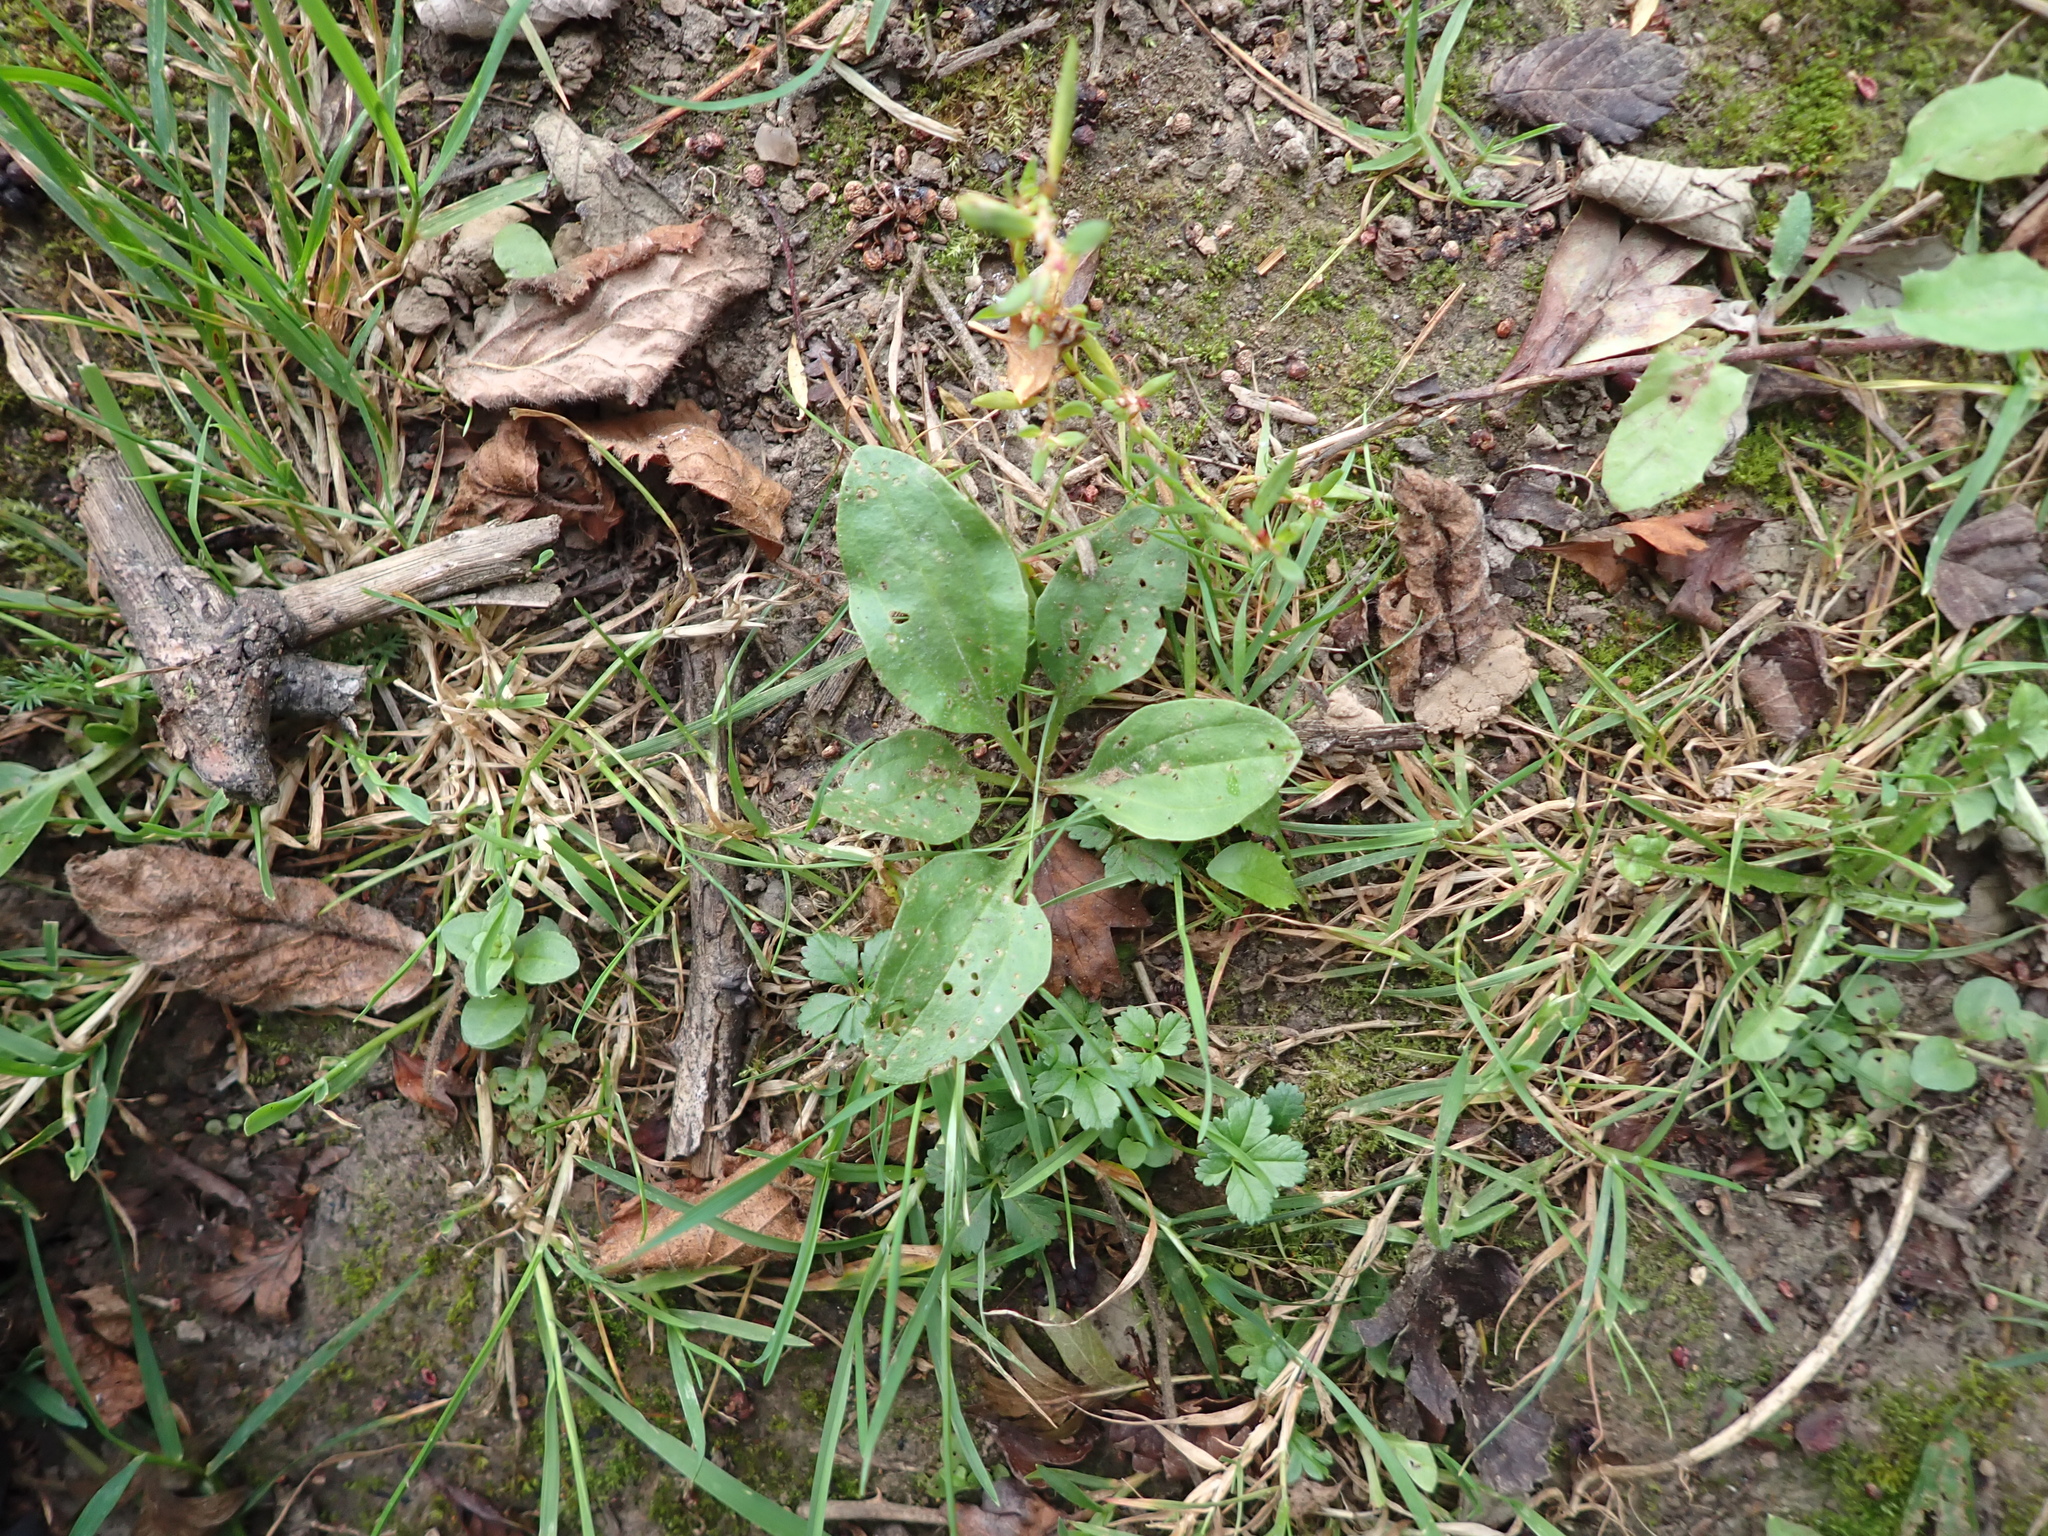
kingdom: Plantae
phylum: Tracheophyta
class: Magnoliopsida
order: Lamiales
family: Plantaginaceae
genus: Plantago
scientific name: Plantago major
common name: Common plantain
